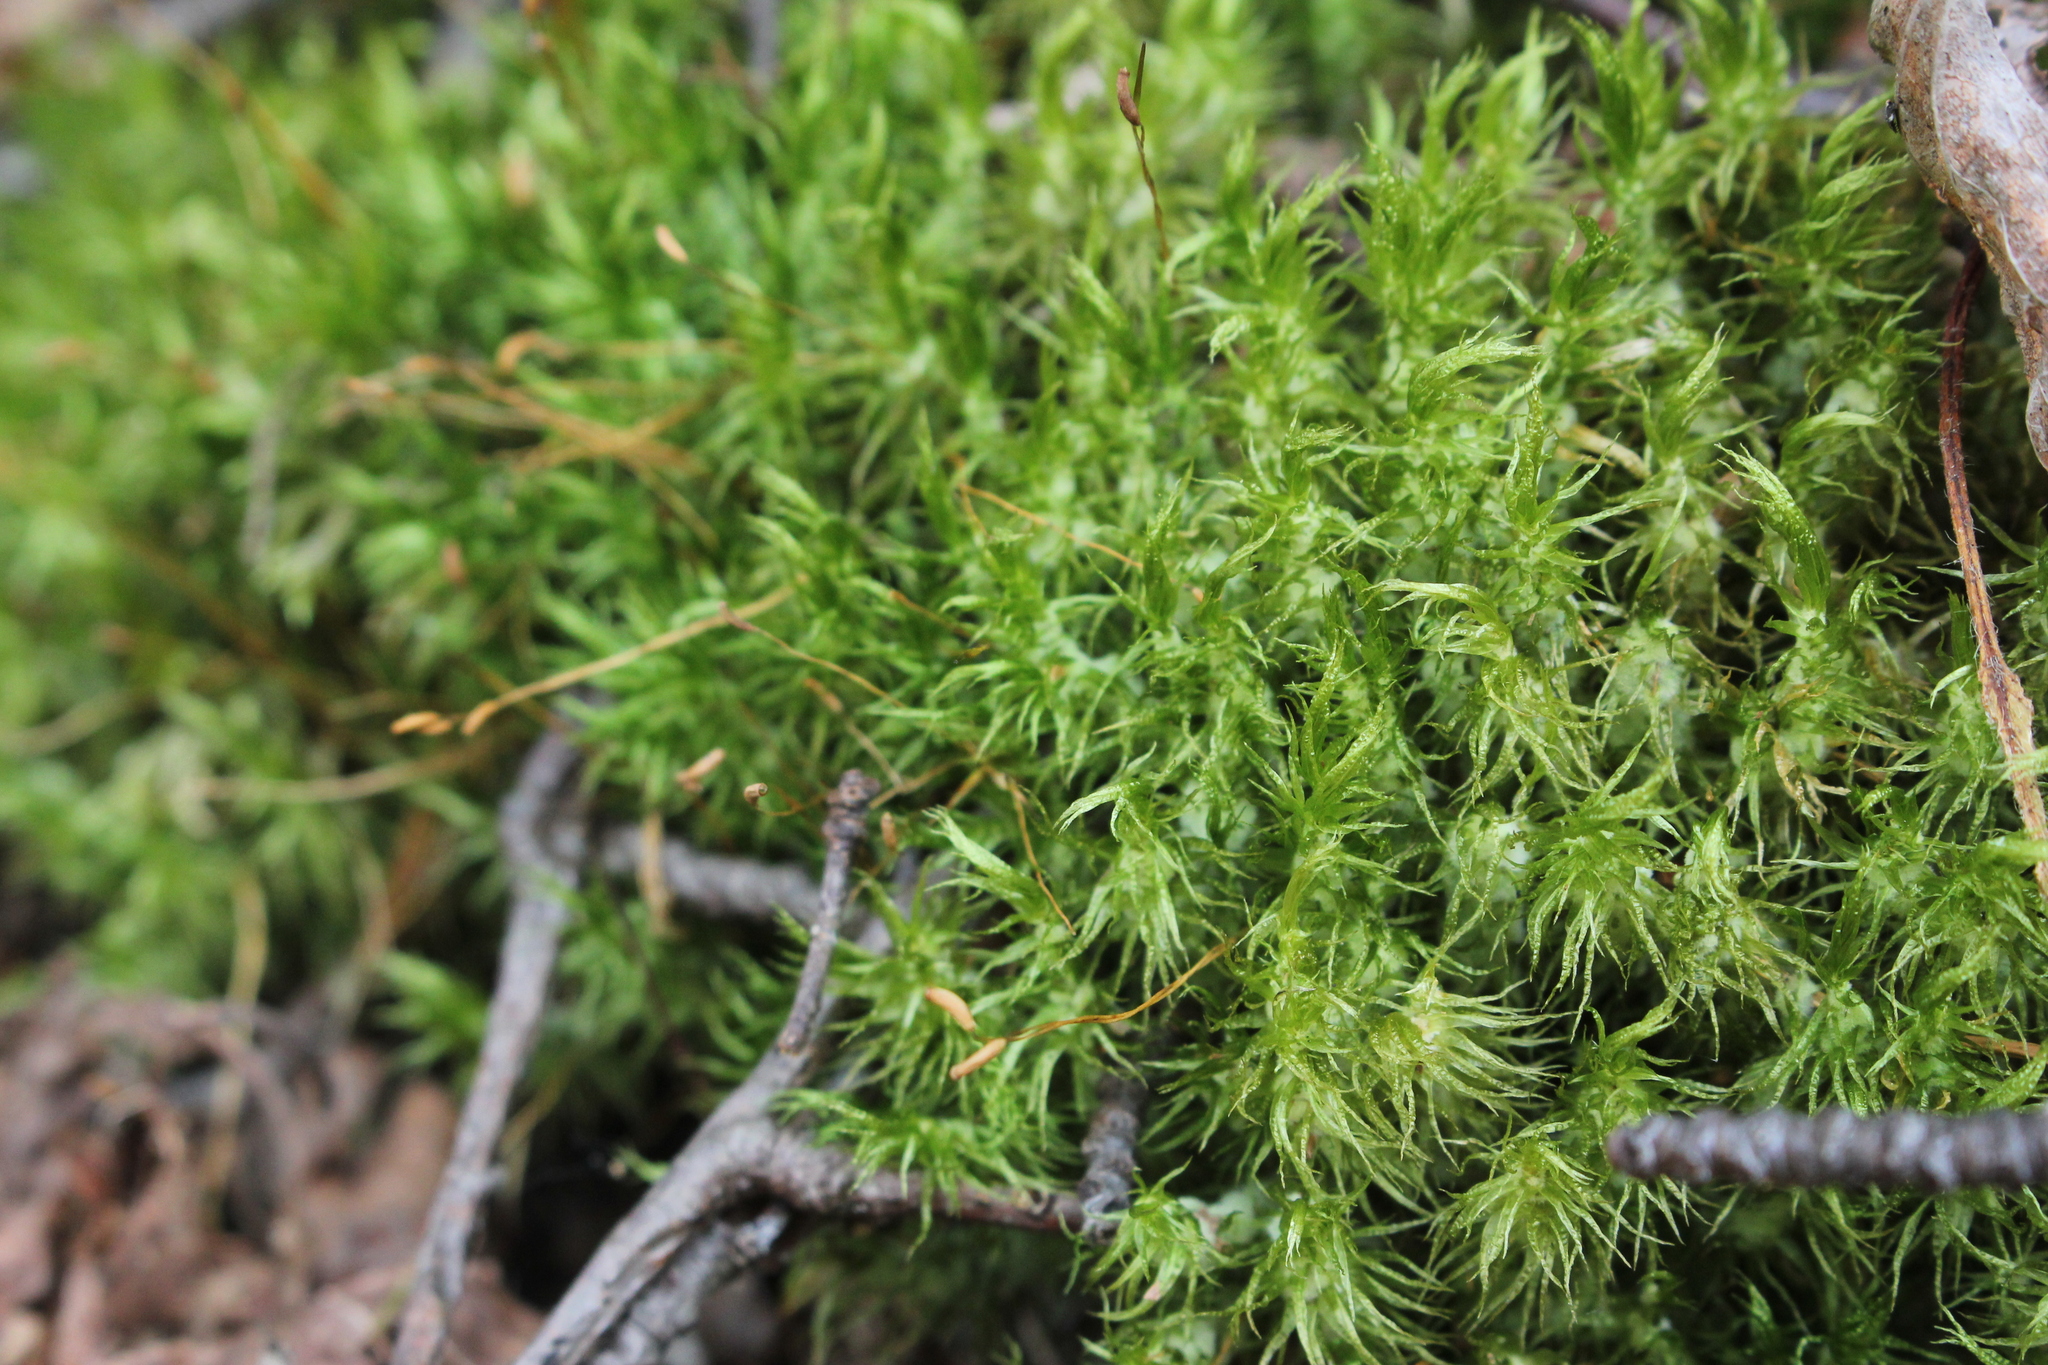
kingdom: Plantae
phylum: Bryophyta
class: Bryopsida
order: Dicranales
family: Dicranaceae
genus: Dicranum
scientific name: Dicranum polysetum
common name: Rugose fork-moss
